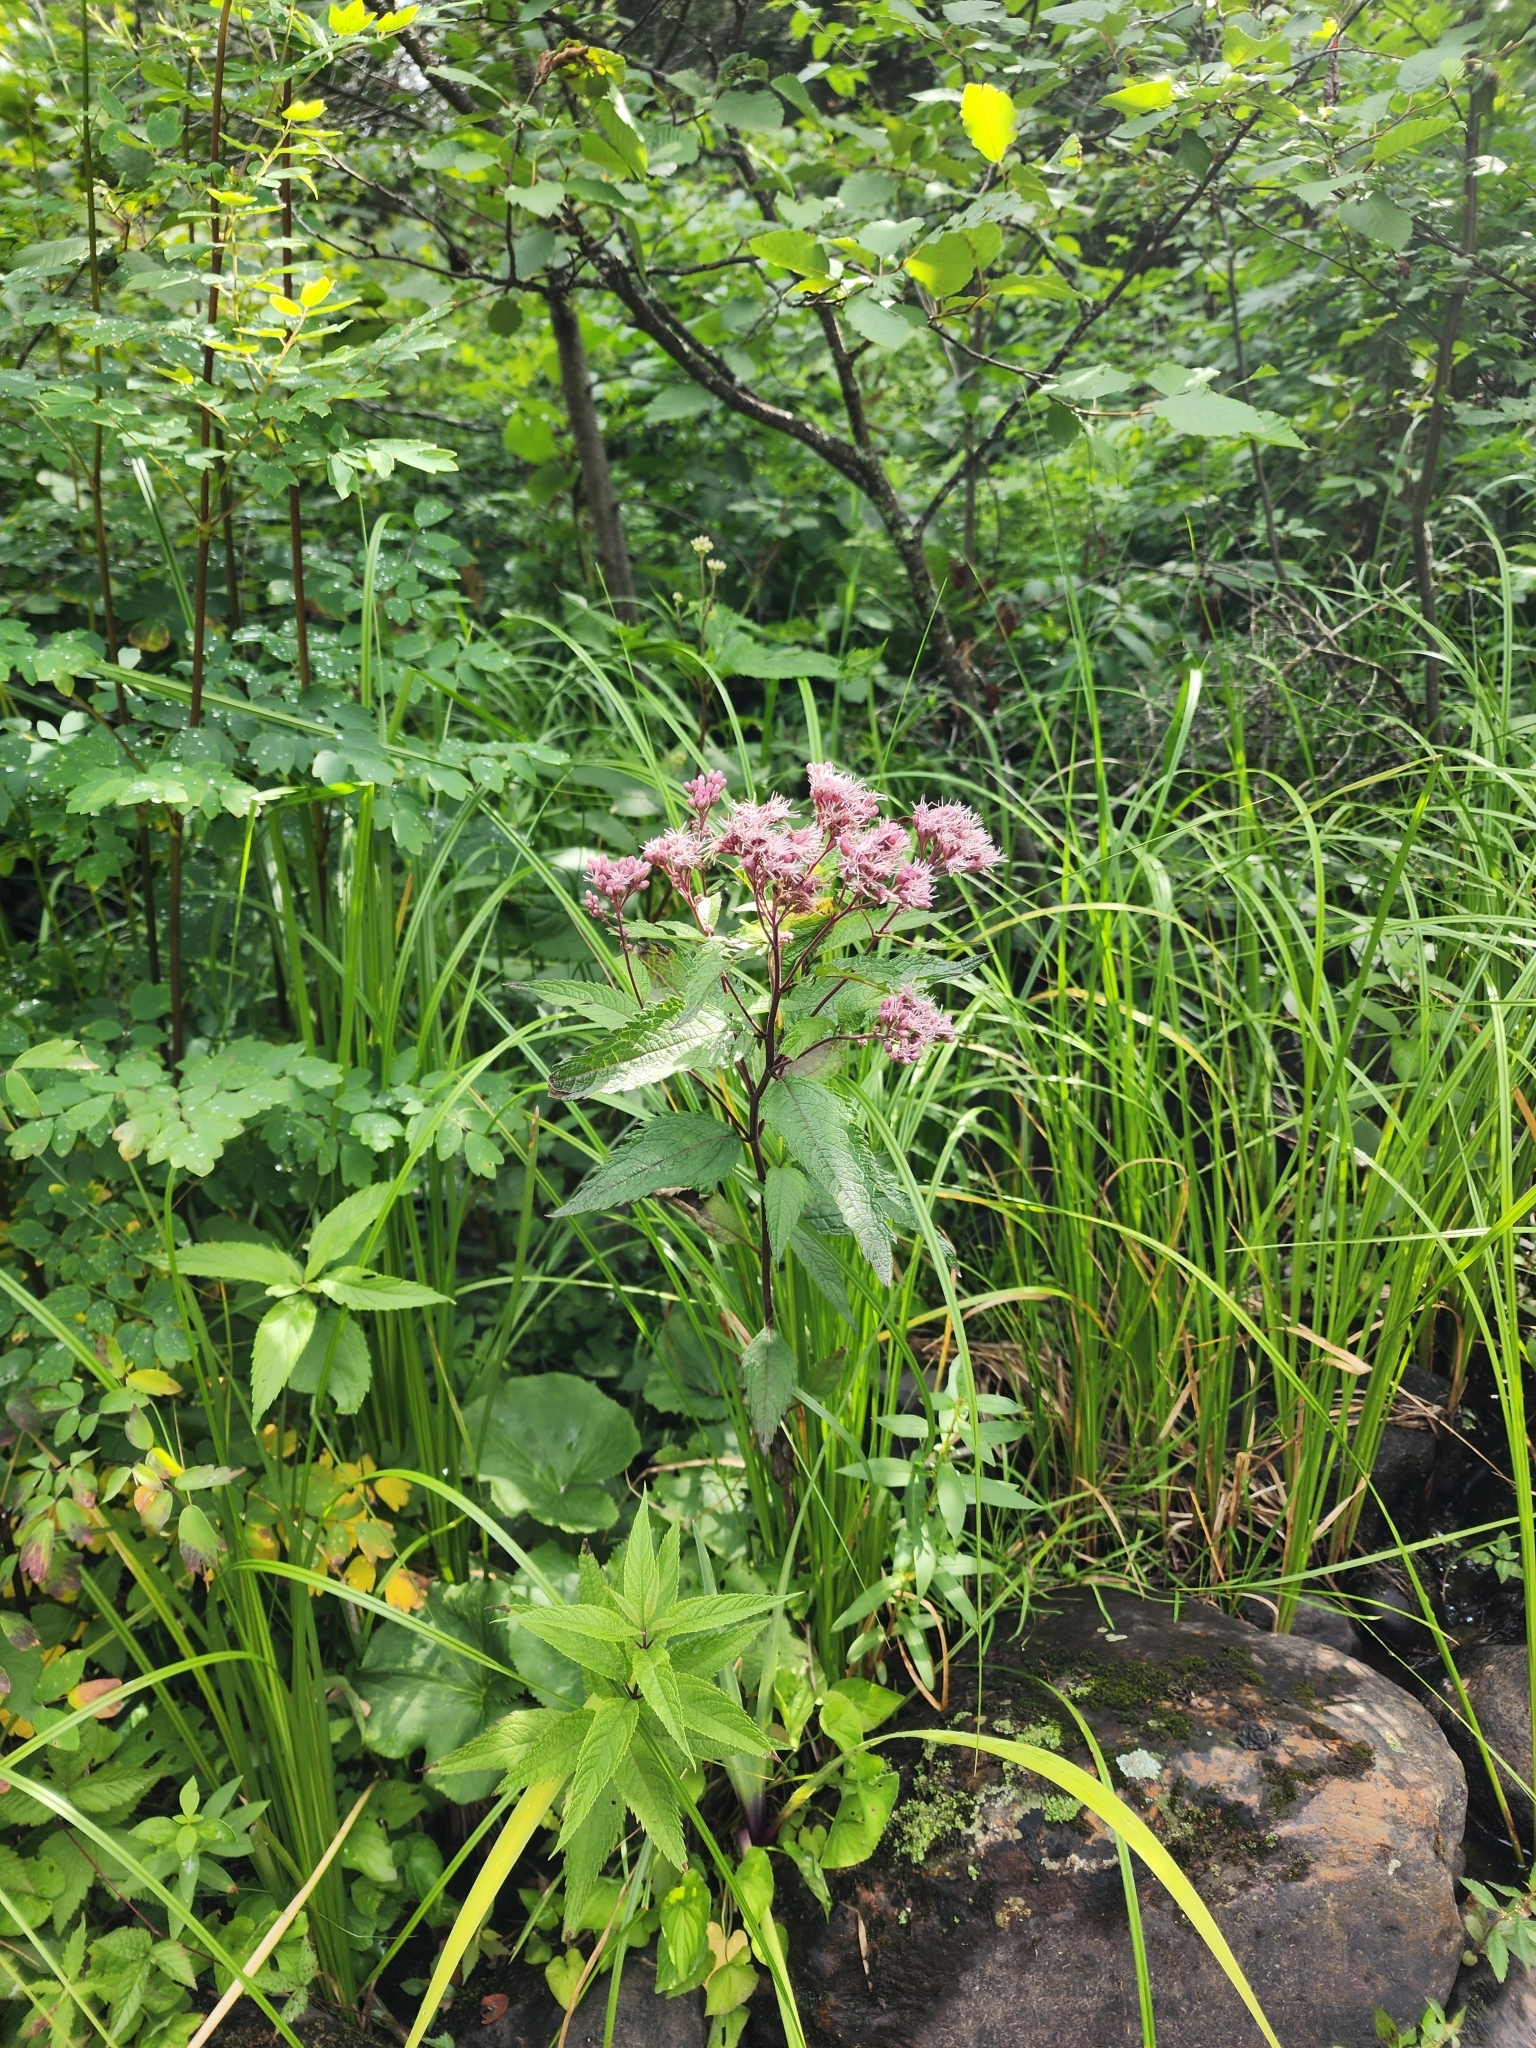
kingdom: Plantae
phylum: Tracheophyta
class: Magnoliopsida
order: Asterales
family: Asteraceae
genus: Eutrochium
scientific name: Eutrochium maculatum
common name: Spotted joe pye weed
